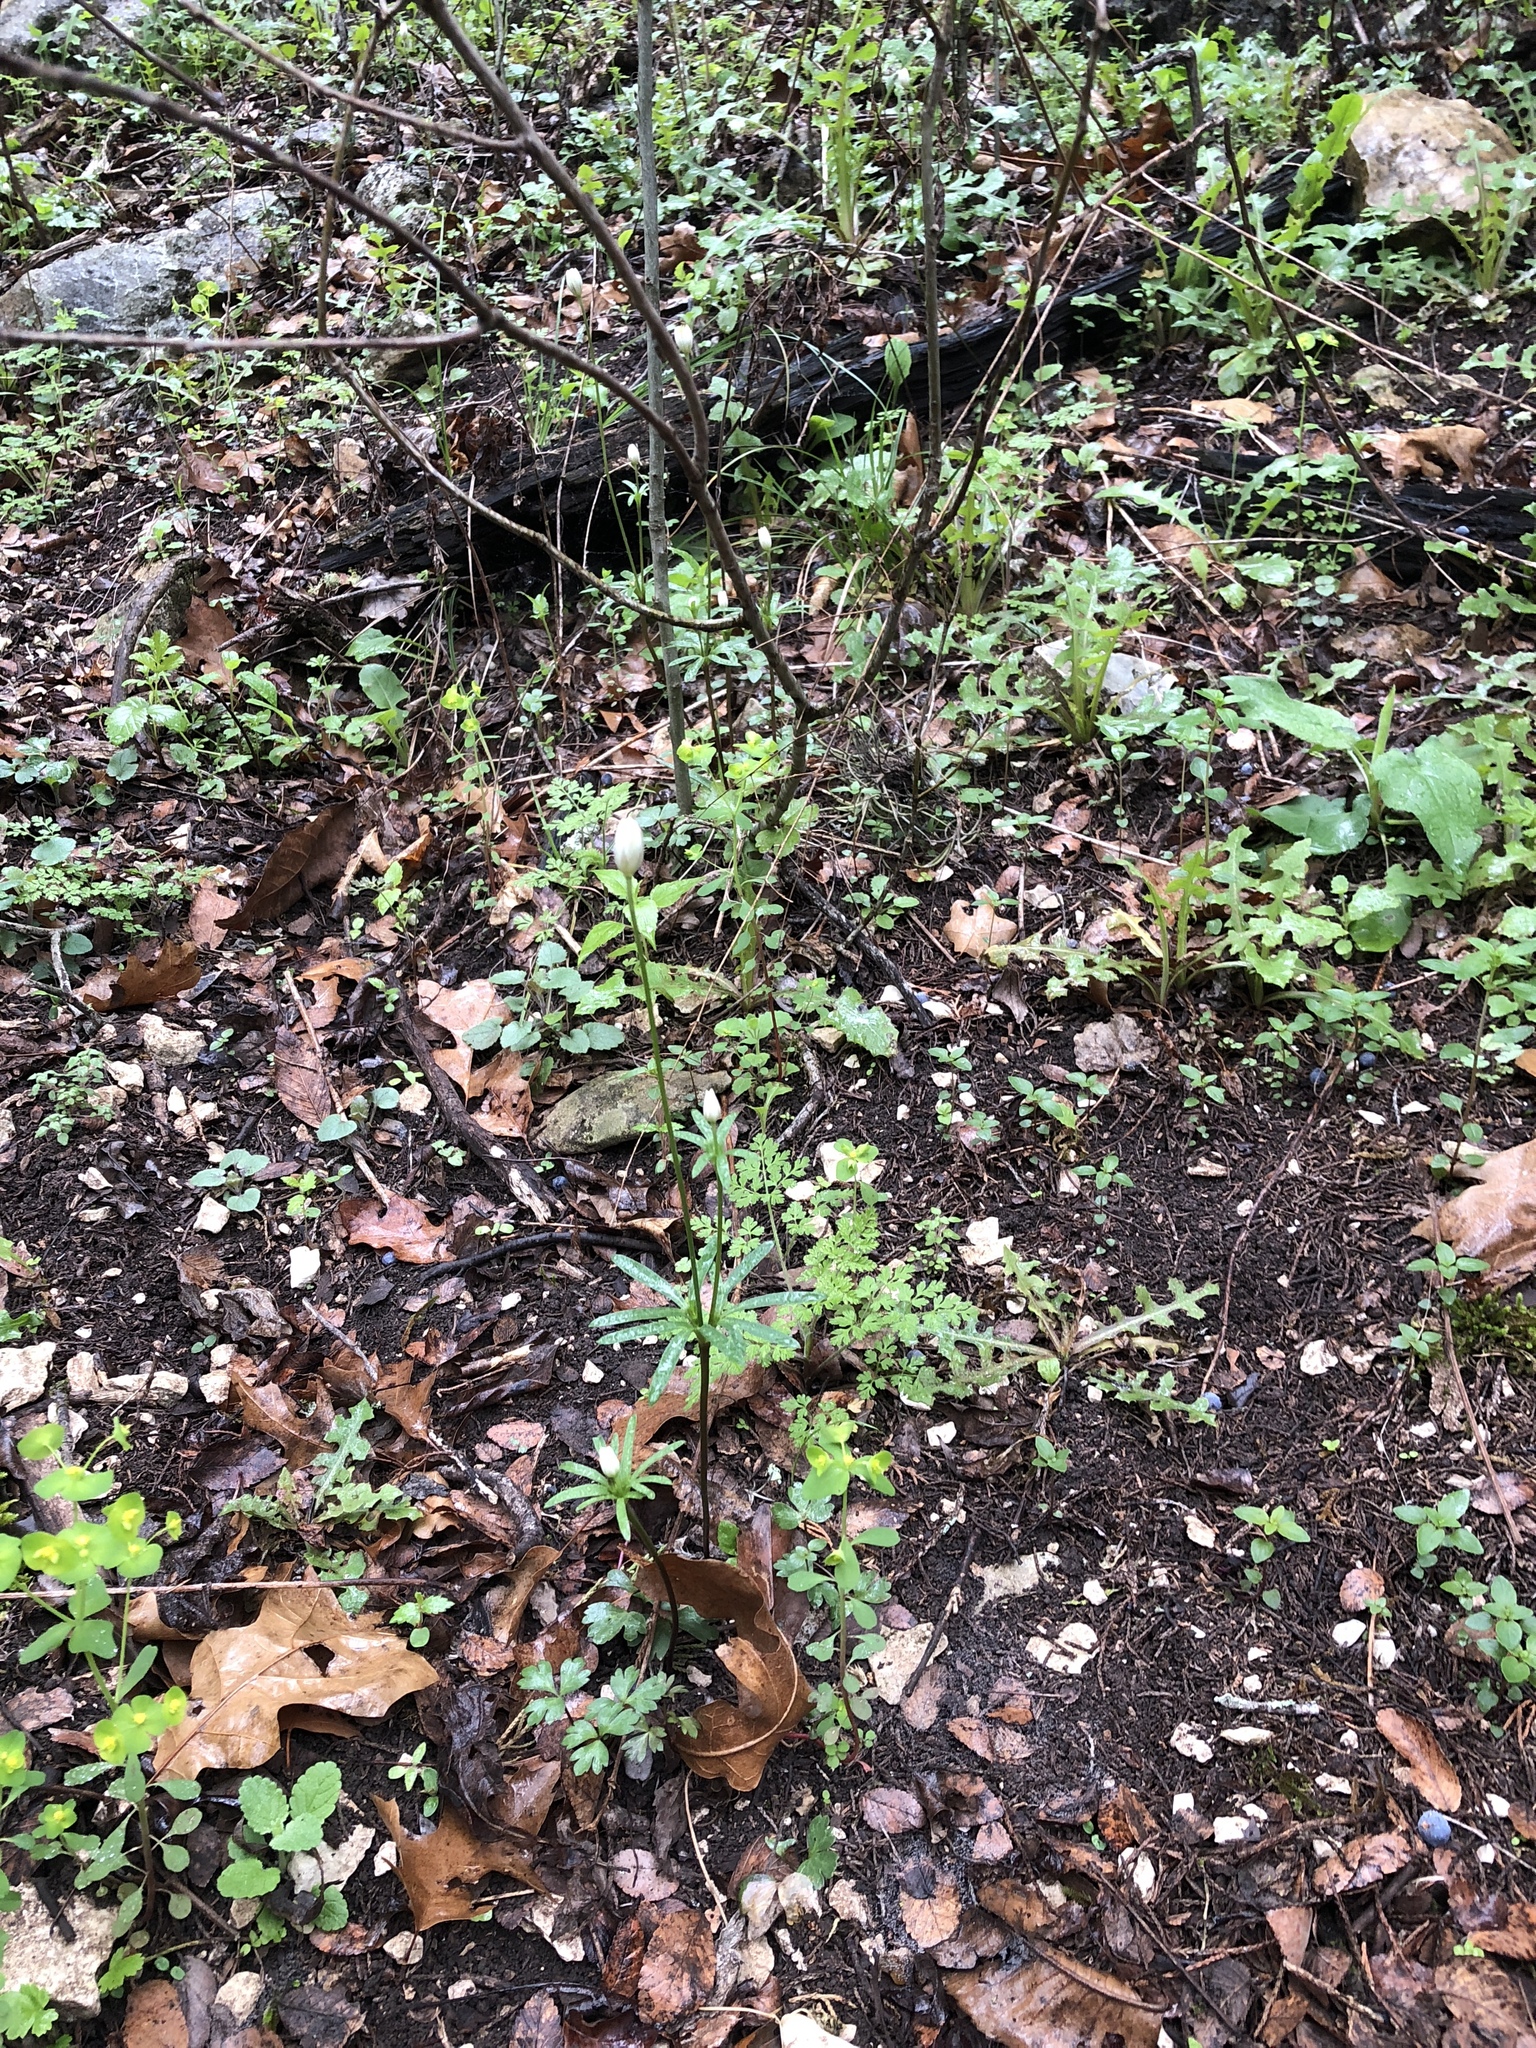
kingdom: Plantae
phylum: Tracheophyta
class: Magnoliopsida
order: Ranunculales
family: Ranunculaceae
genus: Anemone
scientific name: Anemone edwardsiana
